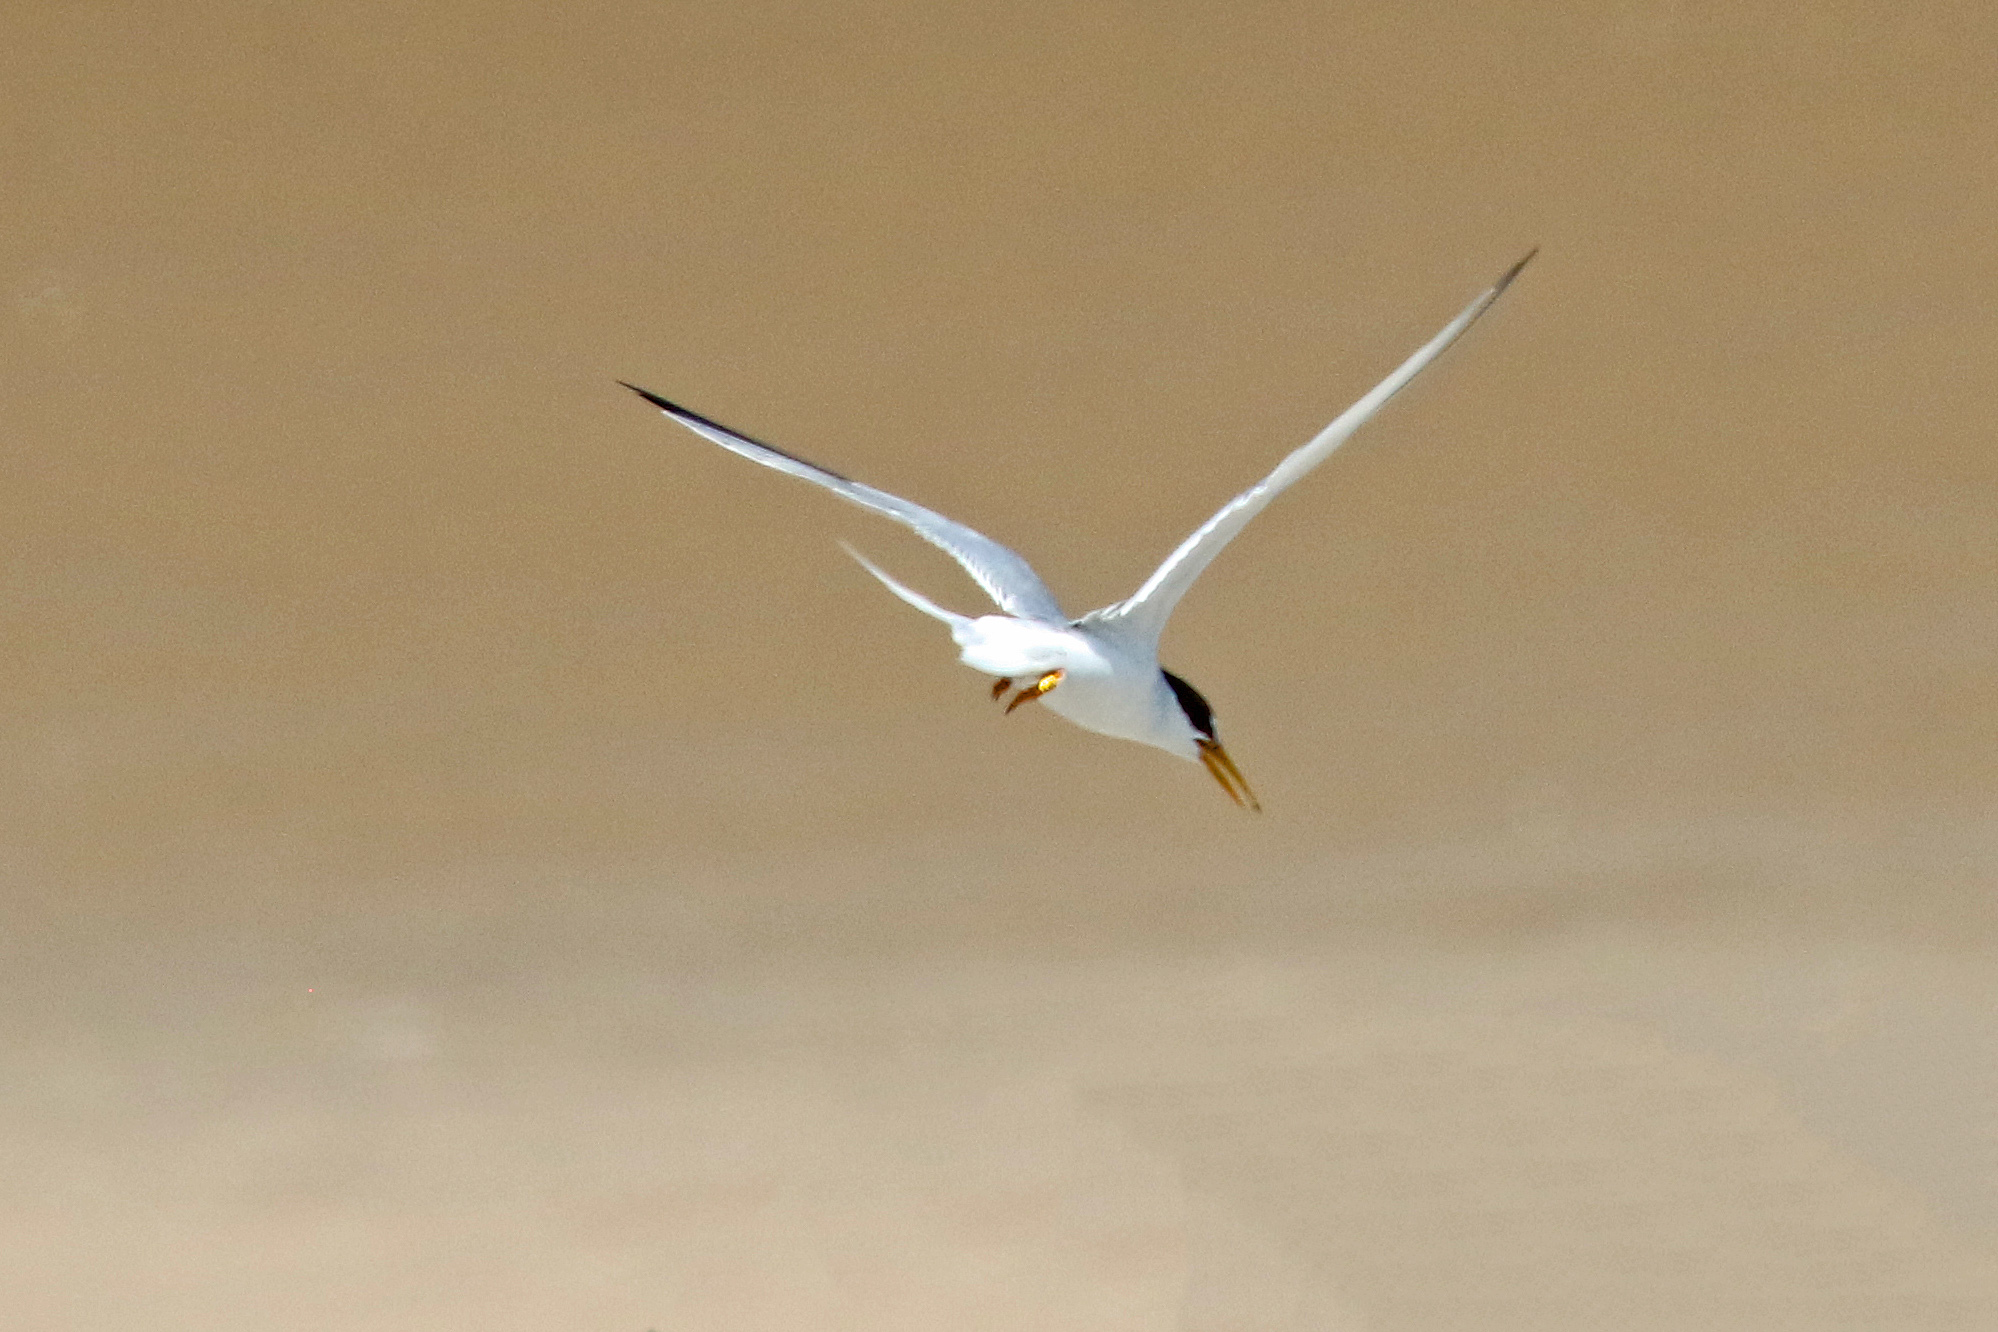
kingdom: Animalia
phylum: Chordata
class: Aves
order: Charadriiformes
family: Laridae
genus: Sternula
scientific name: Sternula albifrons
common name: Little tern
